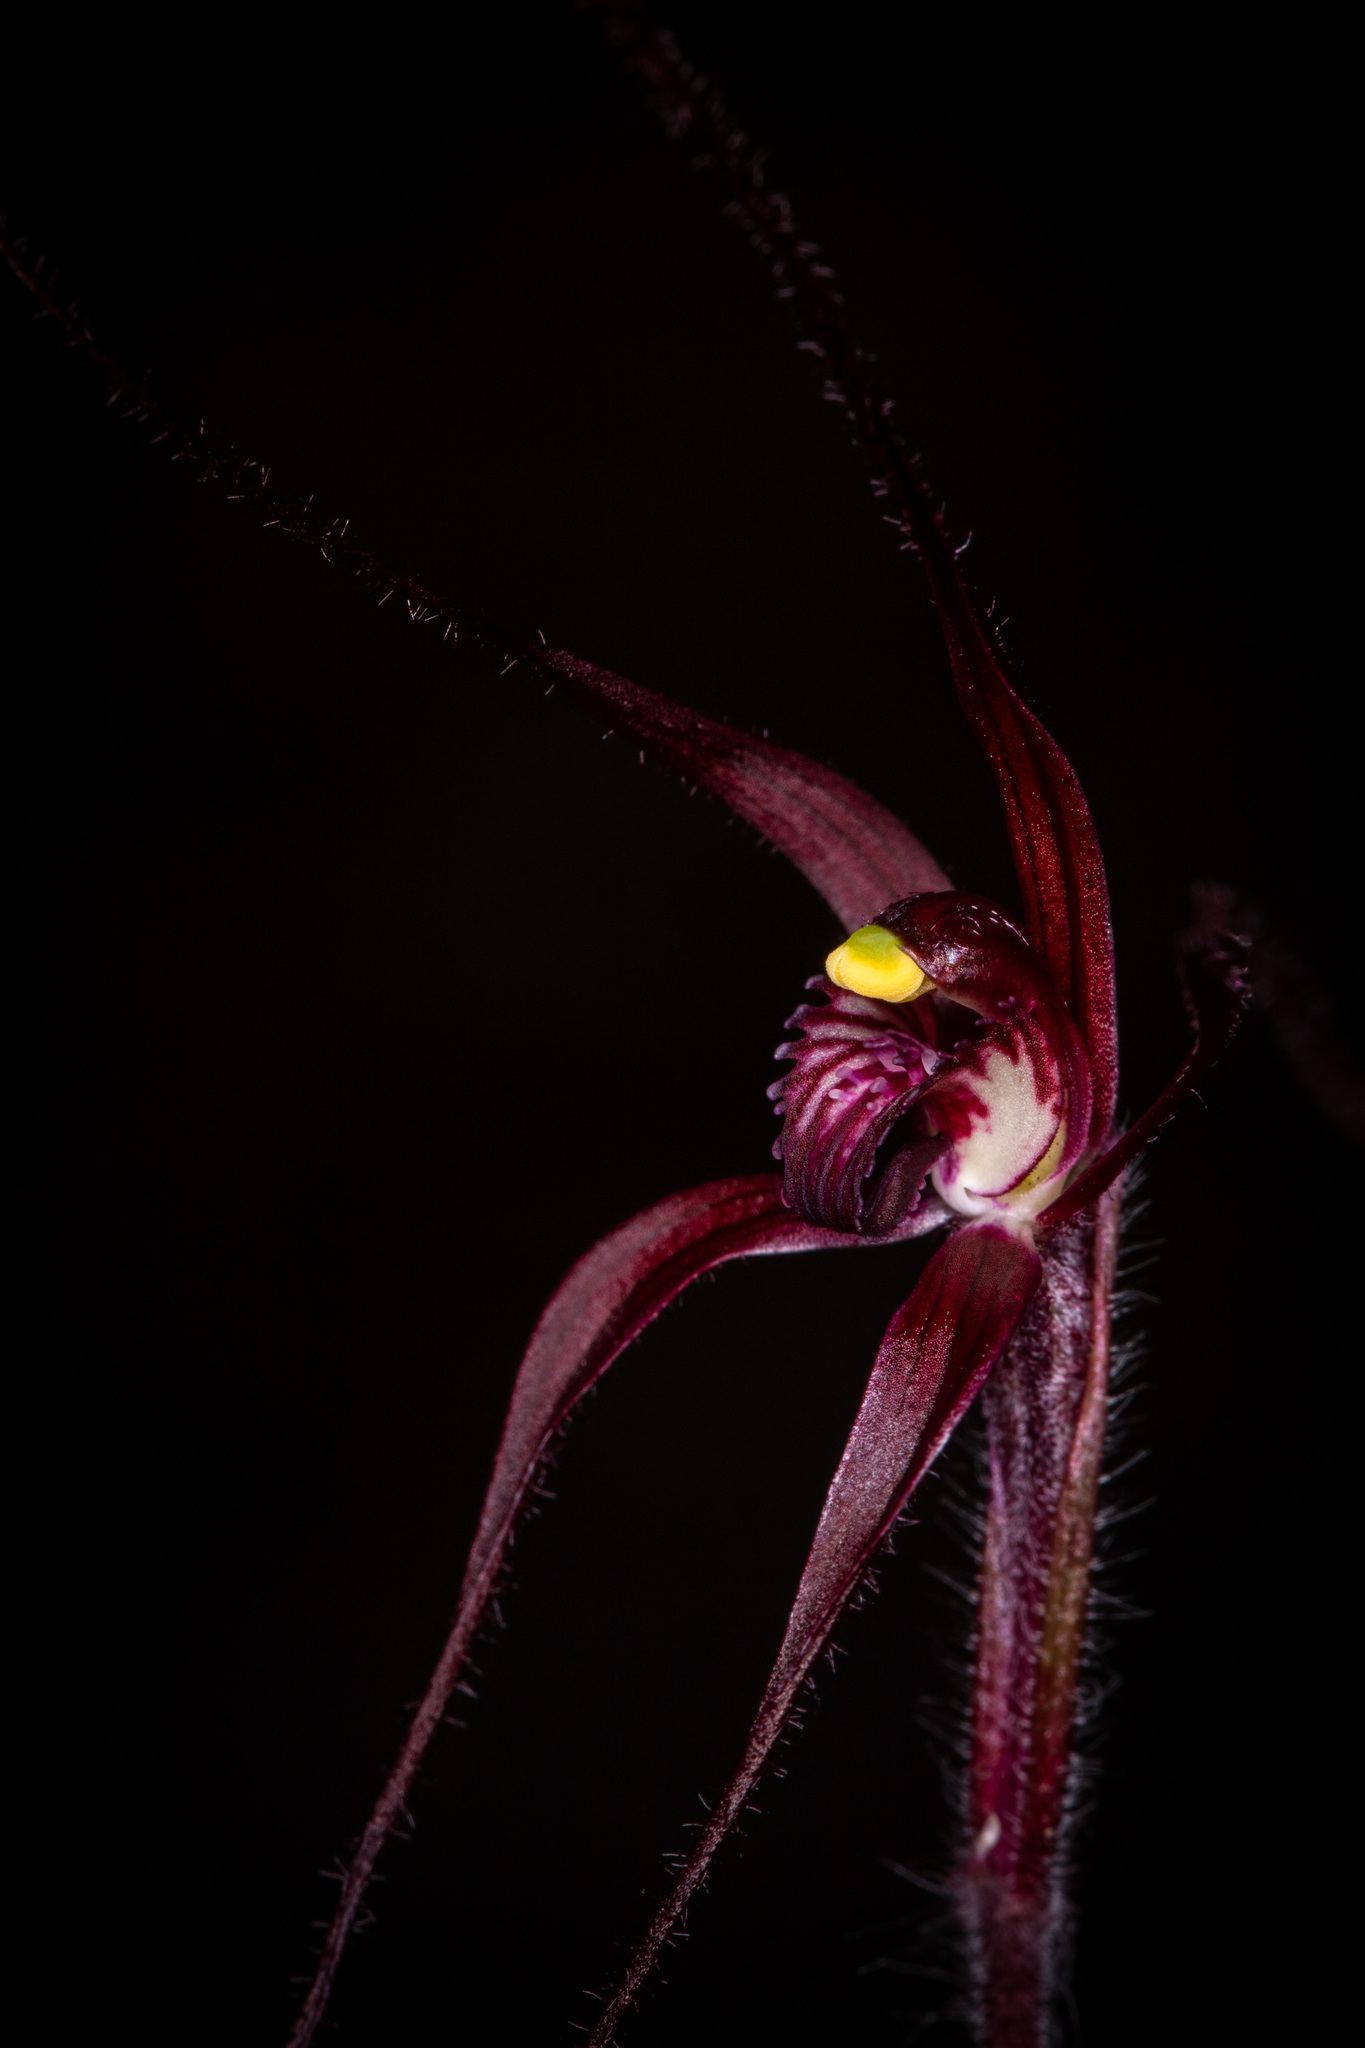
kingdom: Plantae
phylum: Tracheophyta
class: Liliopsida
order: Asparagales
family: Orchidaceae
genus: Caladenia
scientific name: Caladenia dundasiae
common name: Dunda's spider orchid
